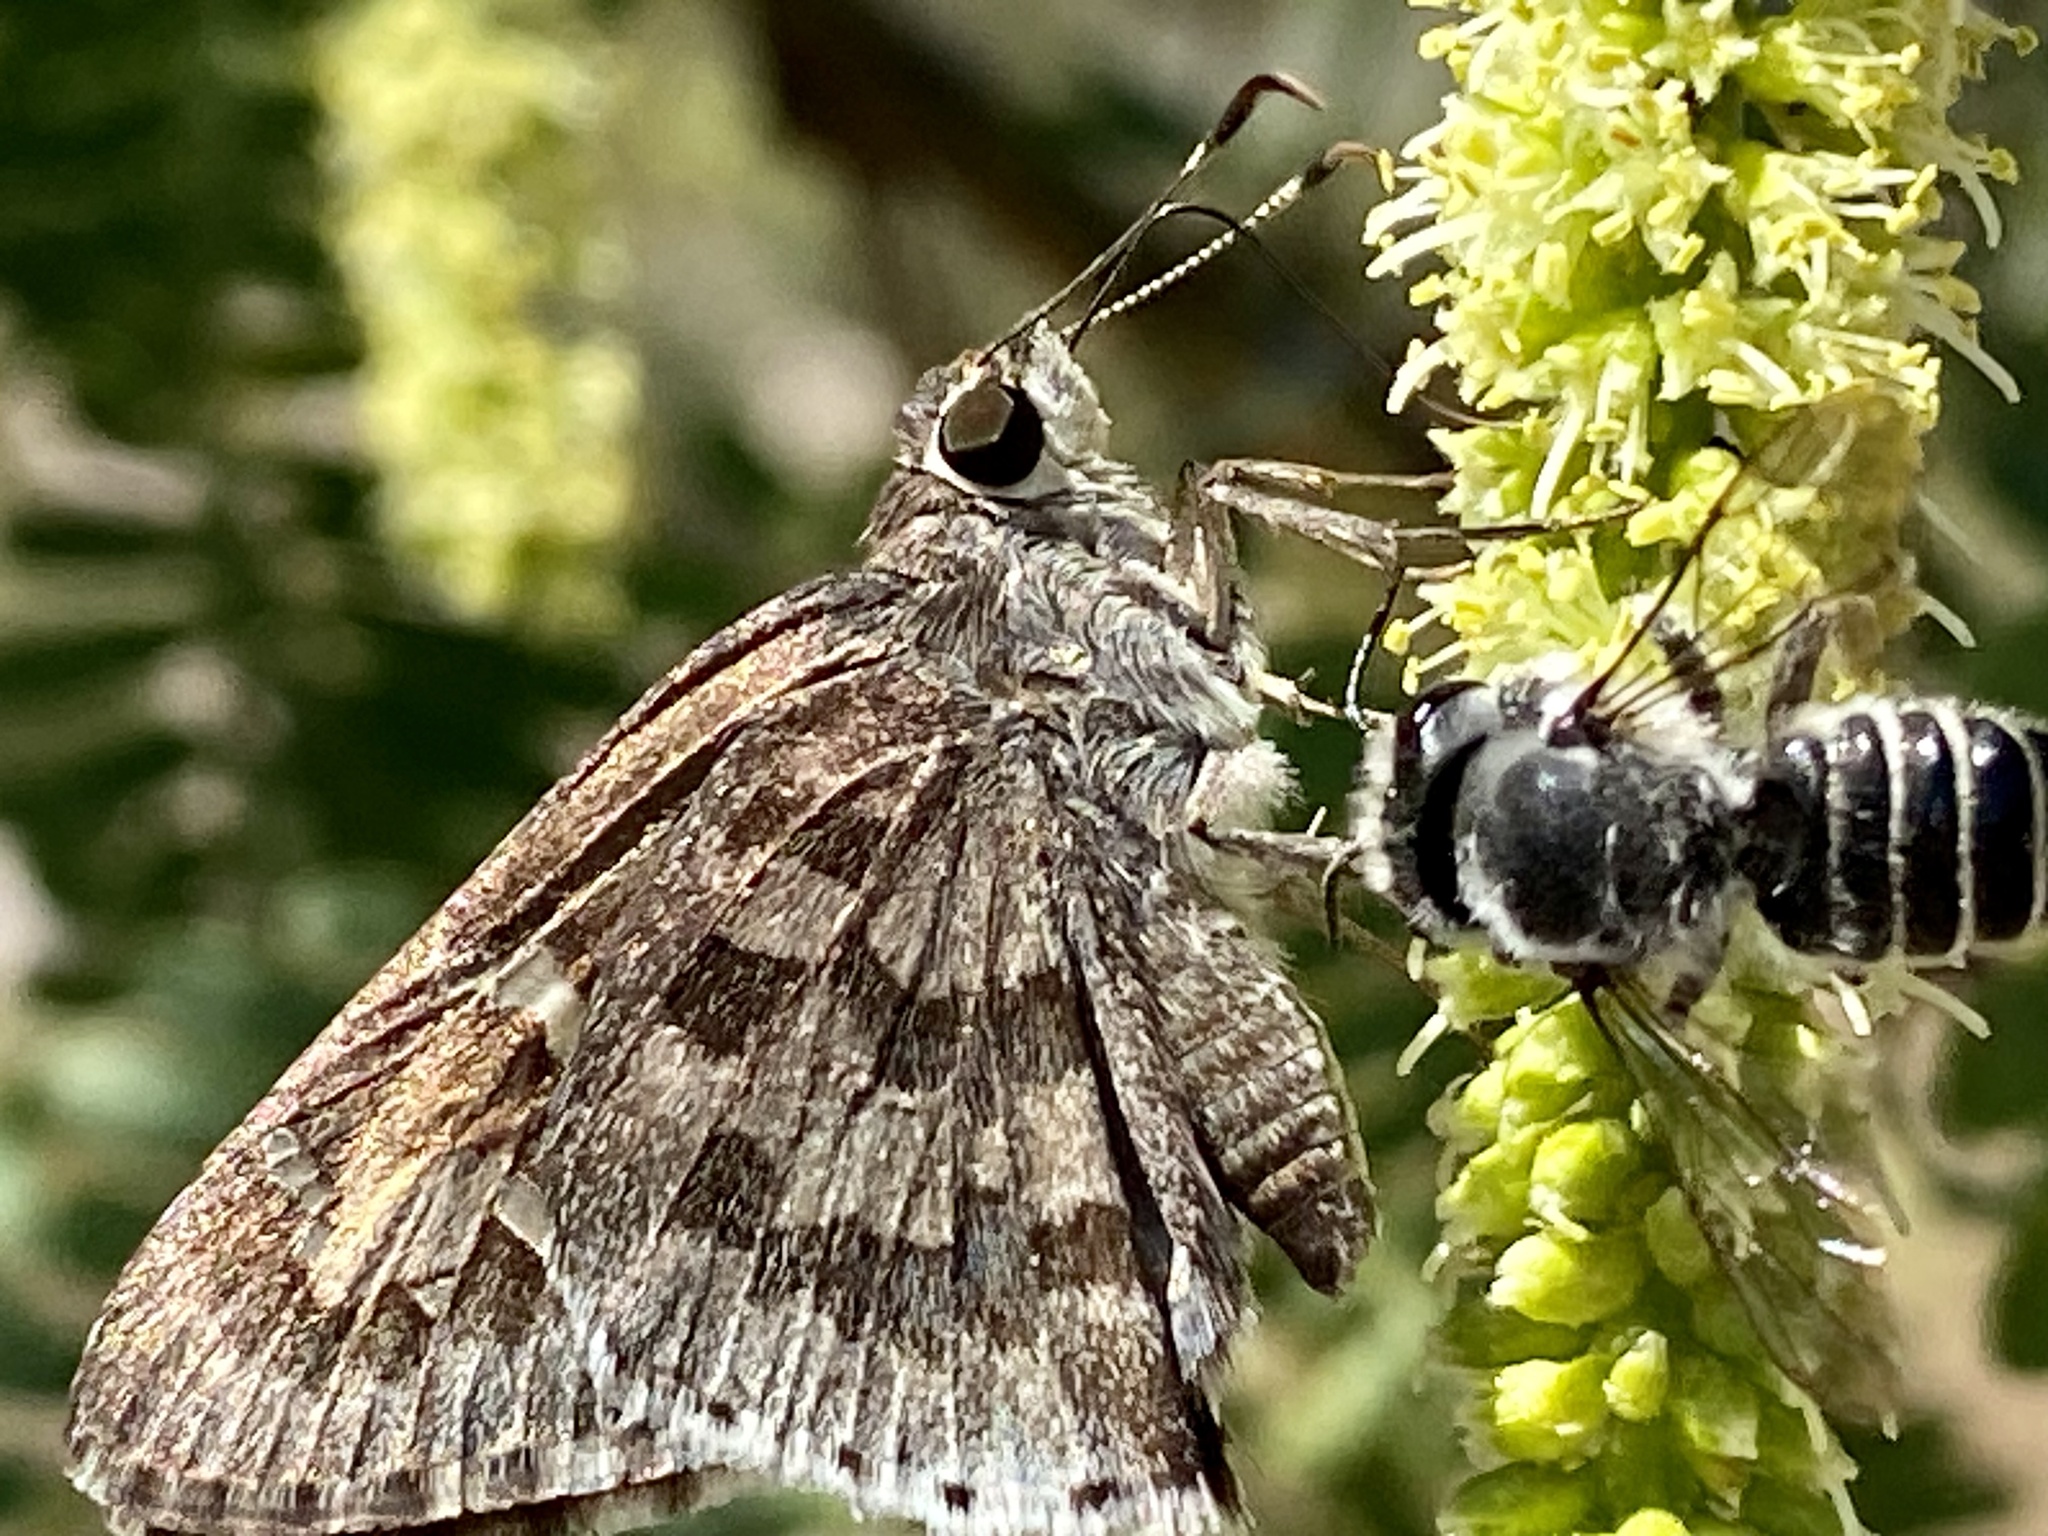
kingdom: Animalia
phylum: Arthropoda
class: Insecta
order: Lepidoptera
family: Hesperiidae
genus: Cogia
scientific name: Cogia hippalus
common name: Acacia skipper
